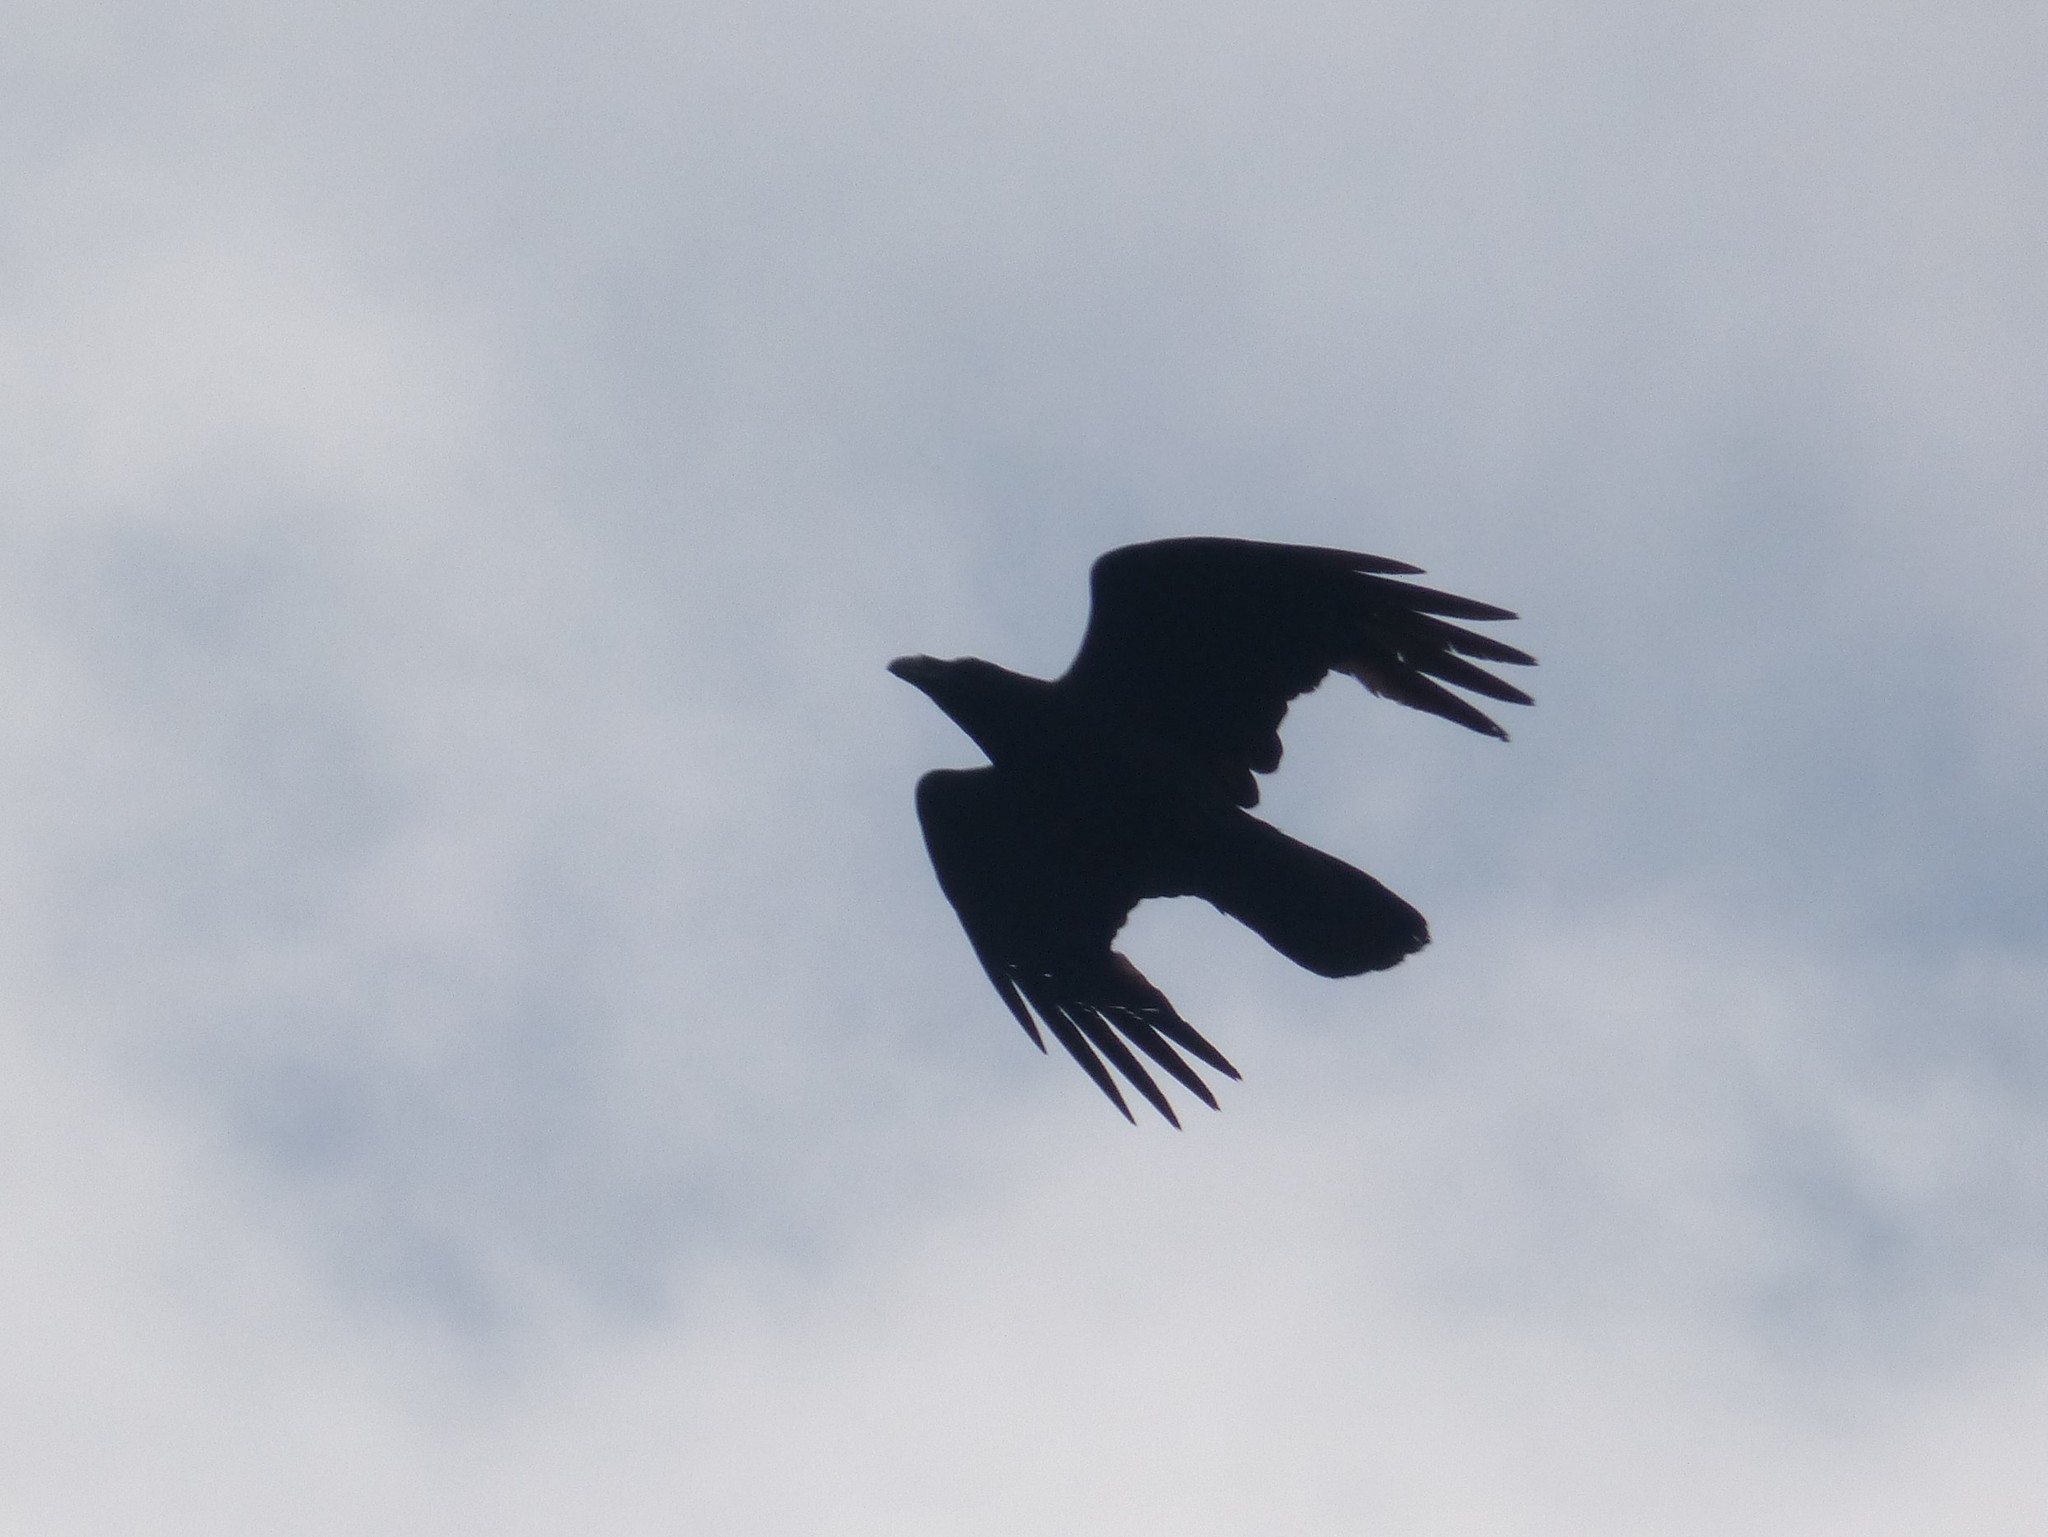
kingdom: Animalia
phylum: Chordata
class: Aves
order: Passeriformes
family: Corvidae
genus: Corvus
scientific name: Corvus corax
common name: Common raven
